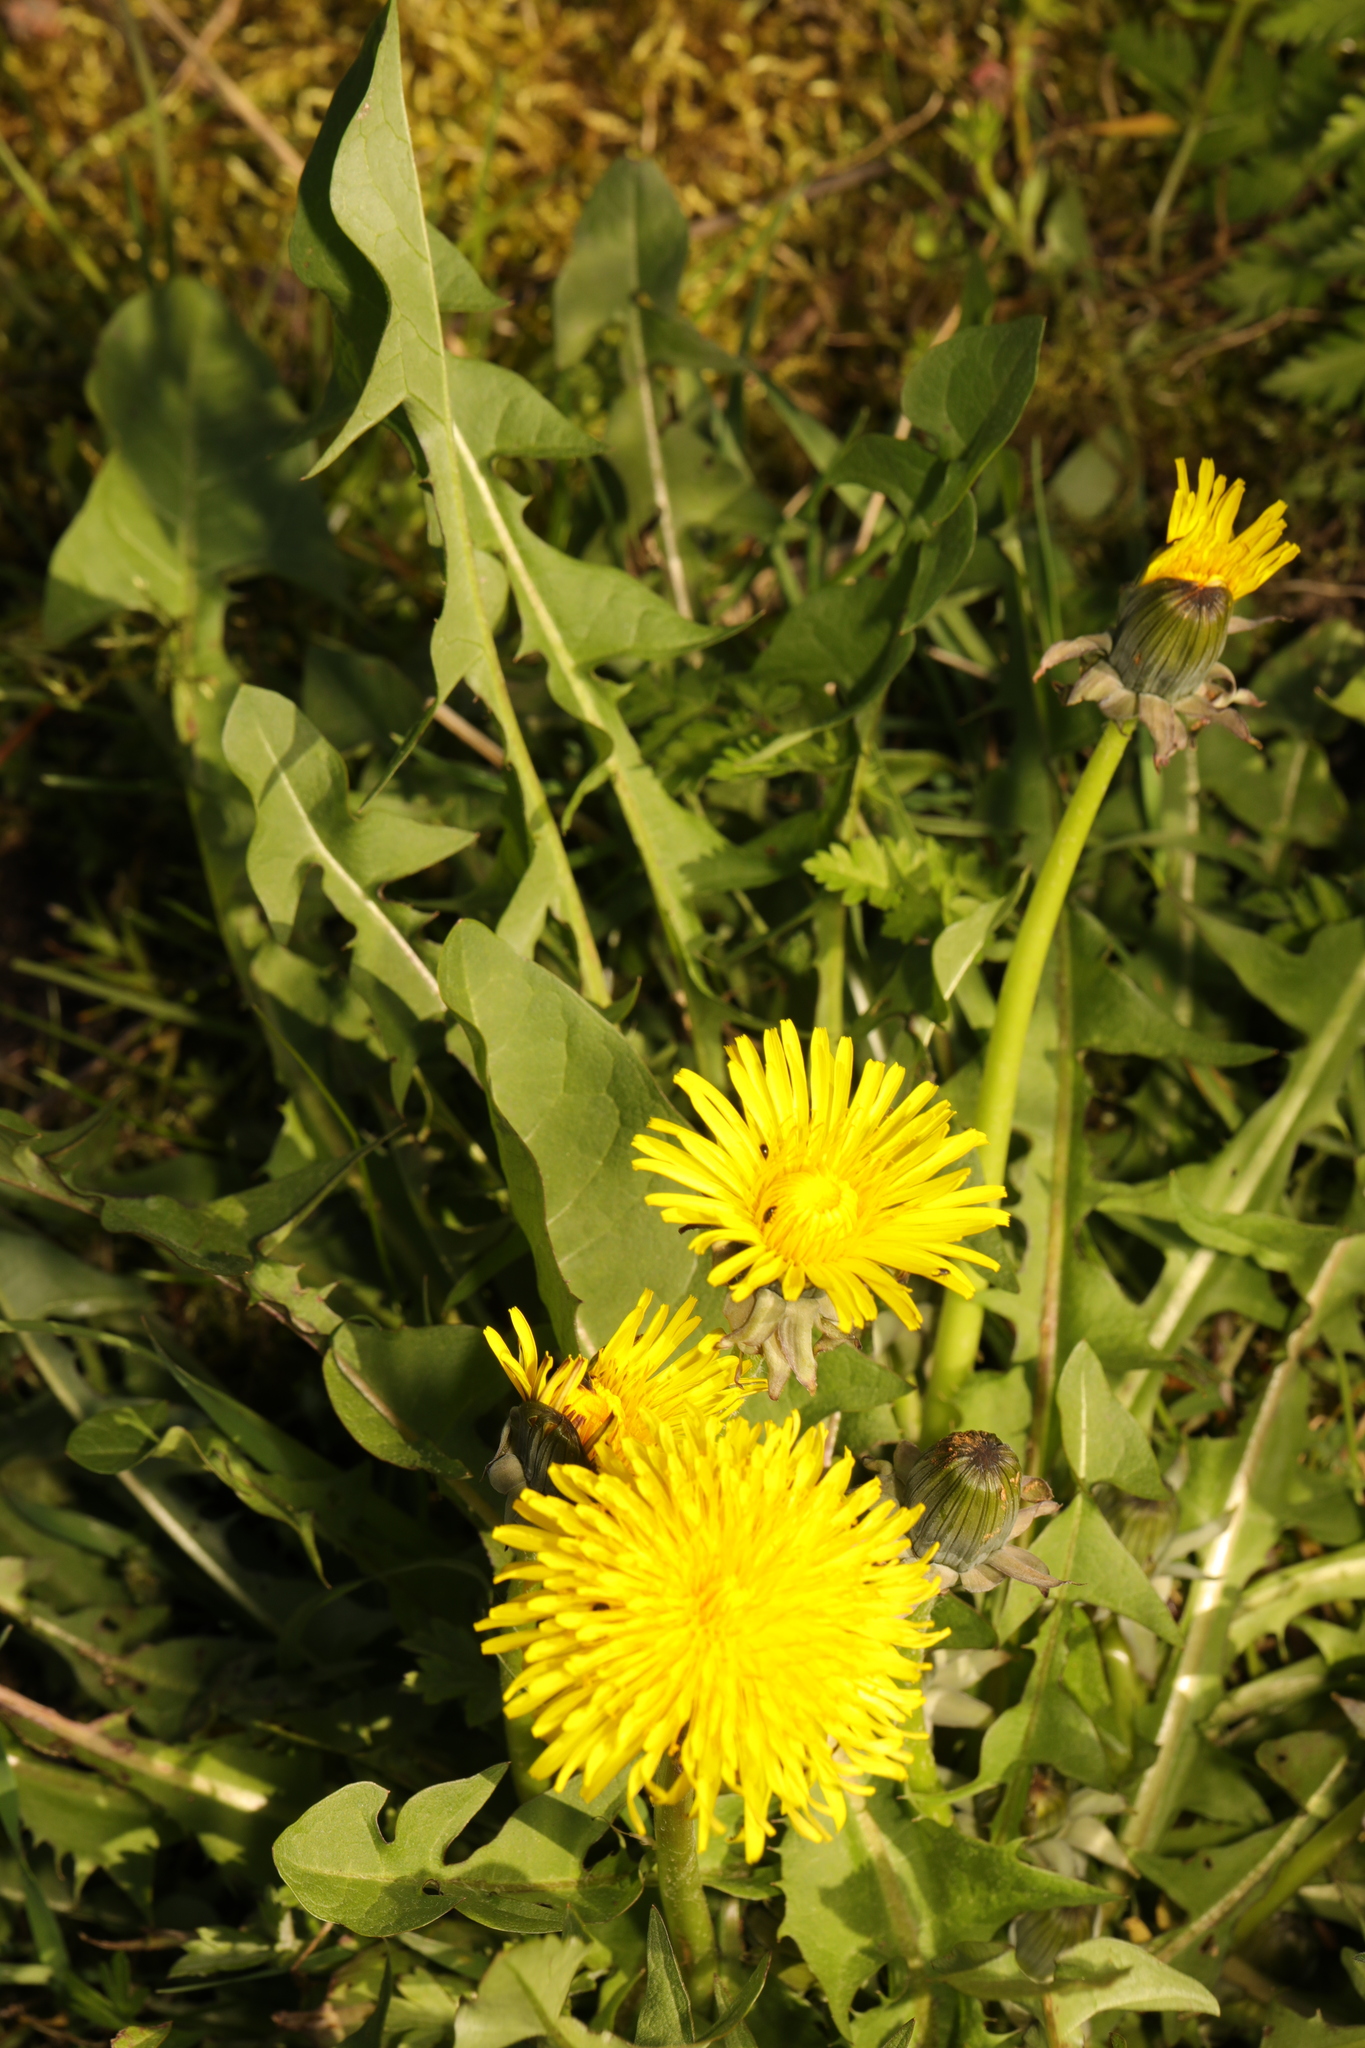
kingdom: Plantae
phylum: Tracheophyta
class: Magnoliopsida
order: Asterales
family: Asteraceae
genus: Taraxacum
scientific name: Taraxacum officinale
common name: Common dandelion
